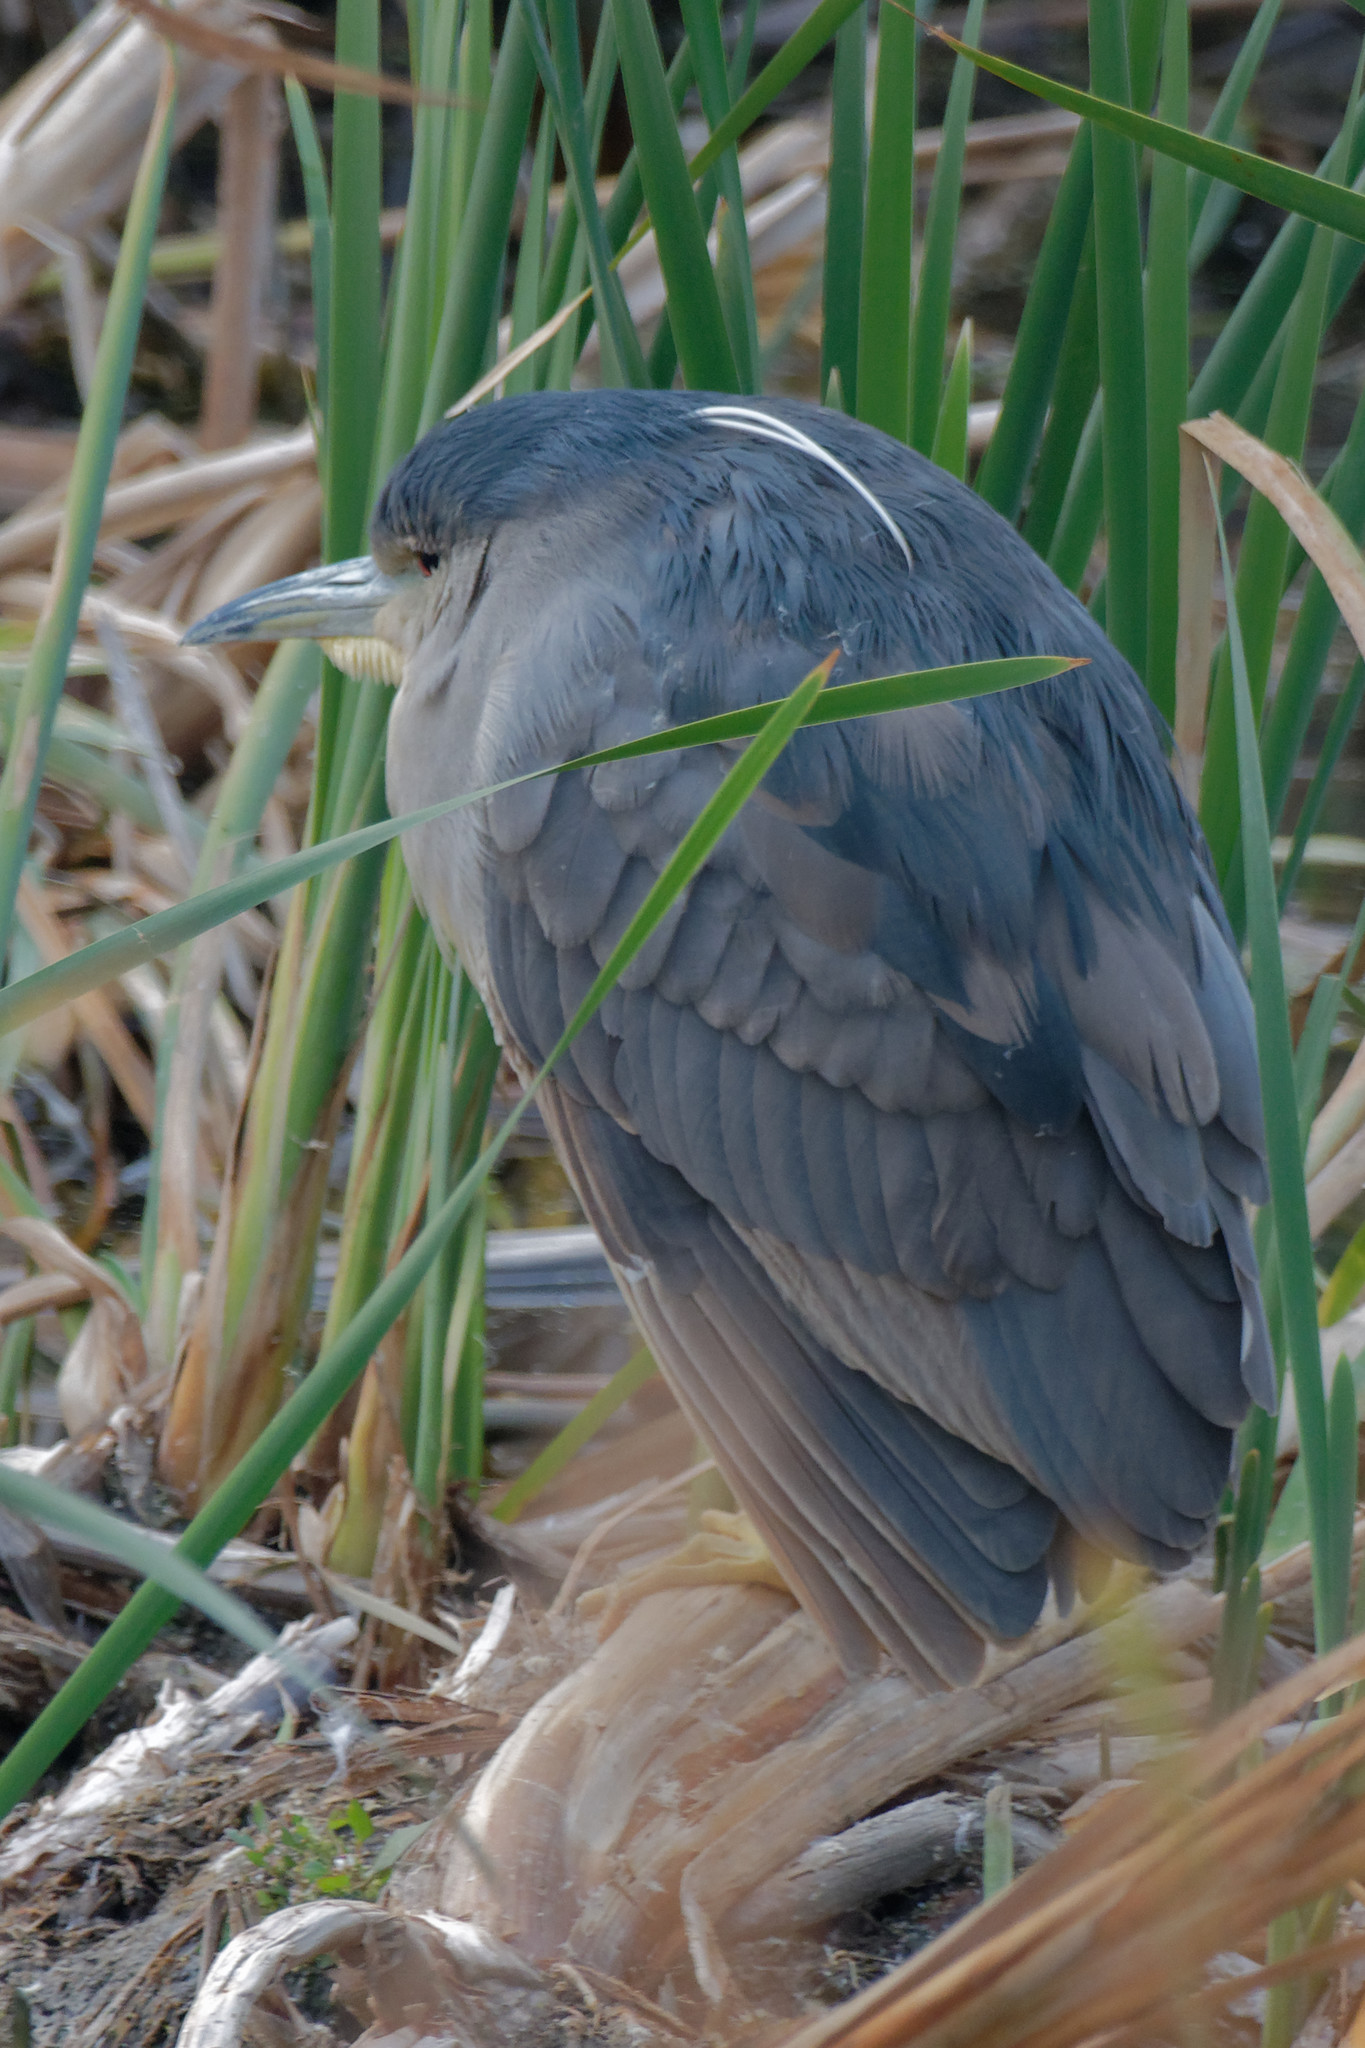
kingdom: Animalia
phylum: Chordata
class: Aves
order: Pelecaniformes
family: Ardeidae
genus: Nycticorax
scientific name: Nycticorax nycticorax
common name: Black-crowned night heron
